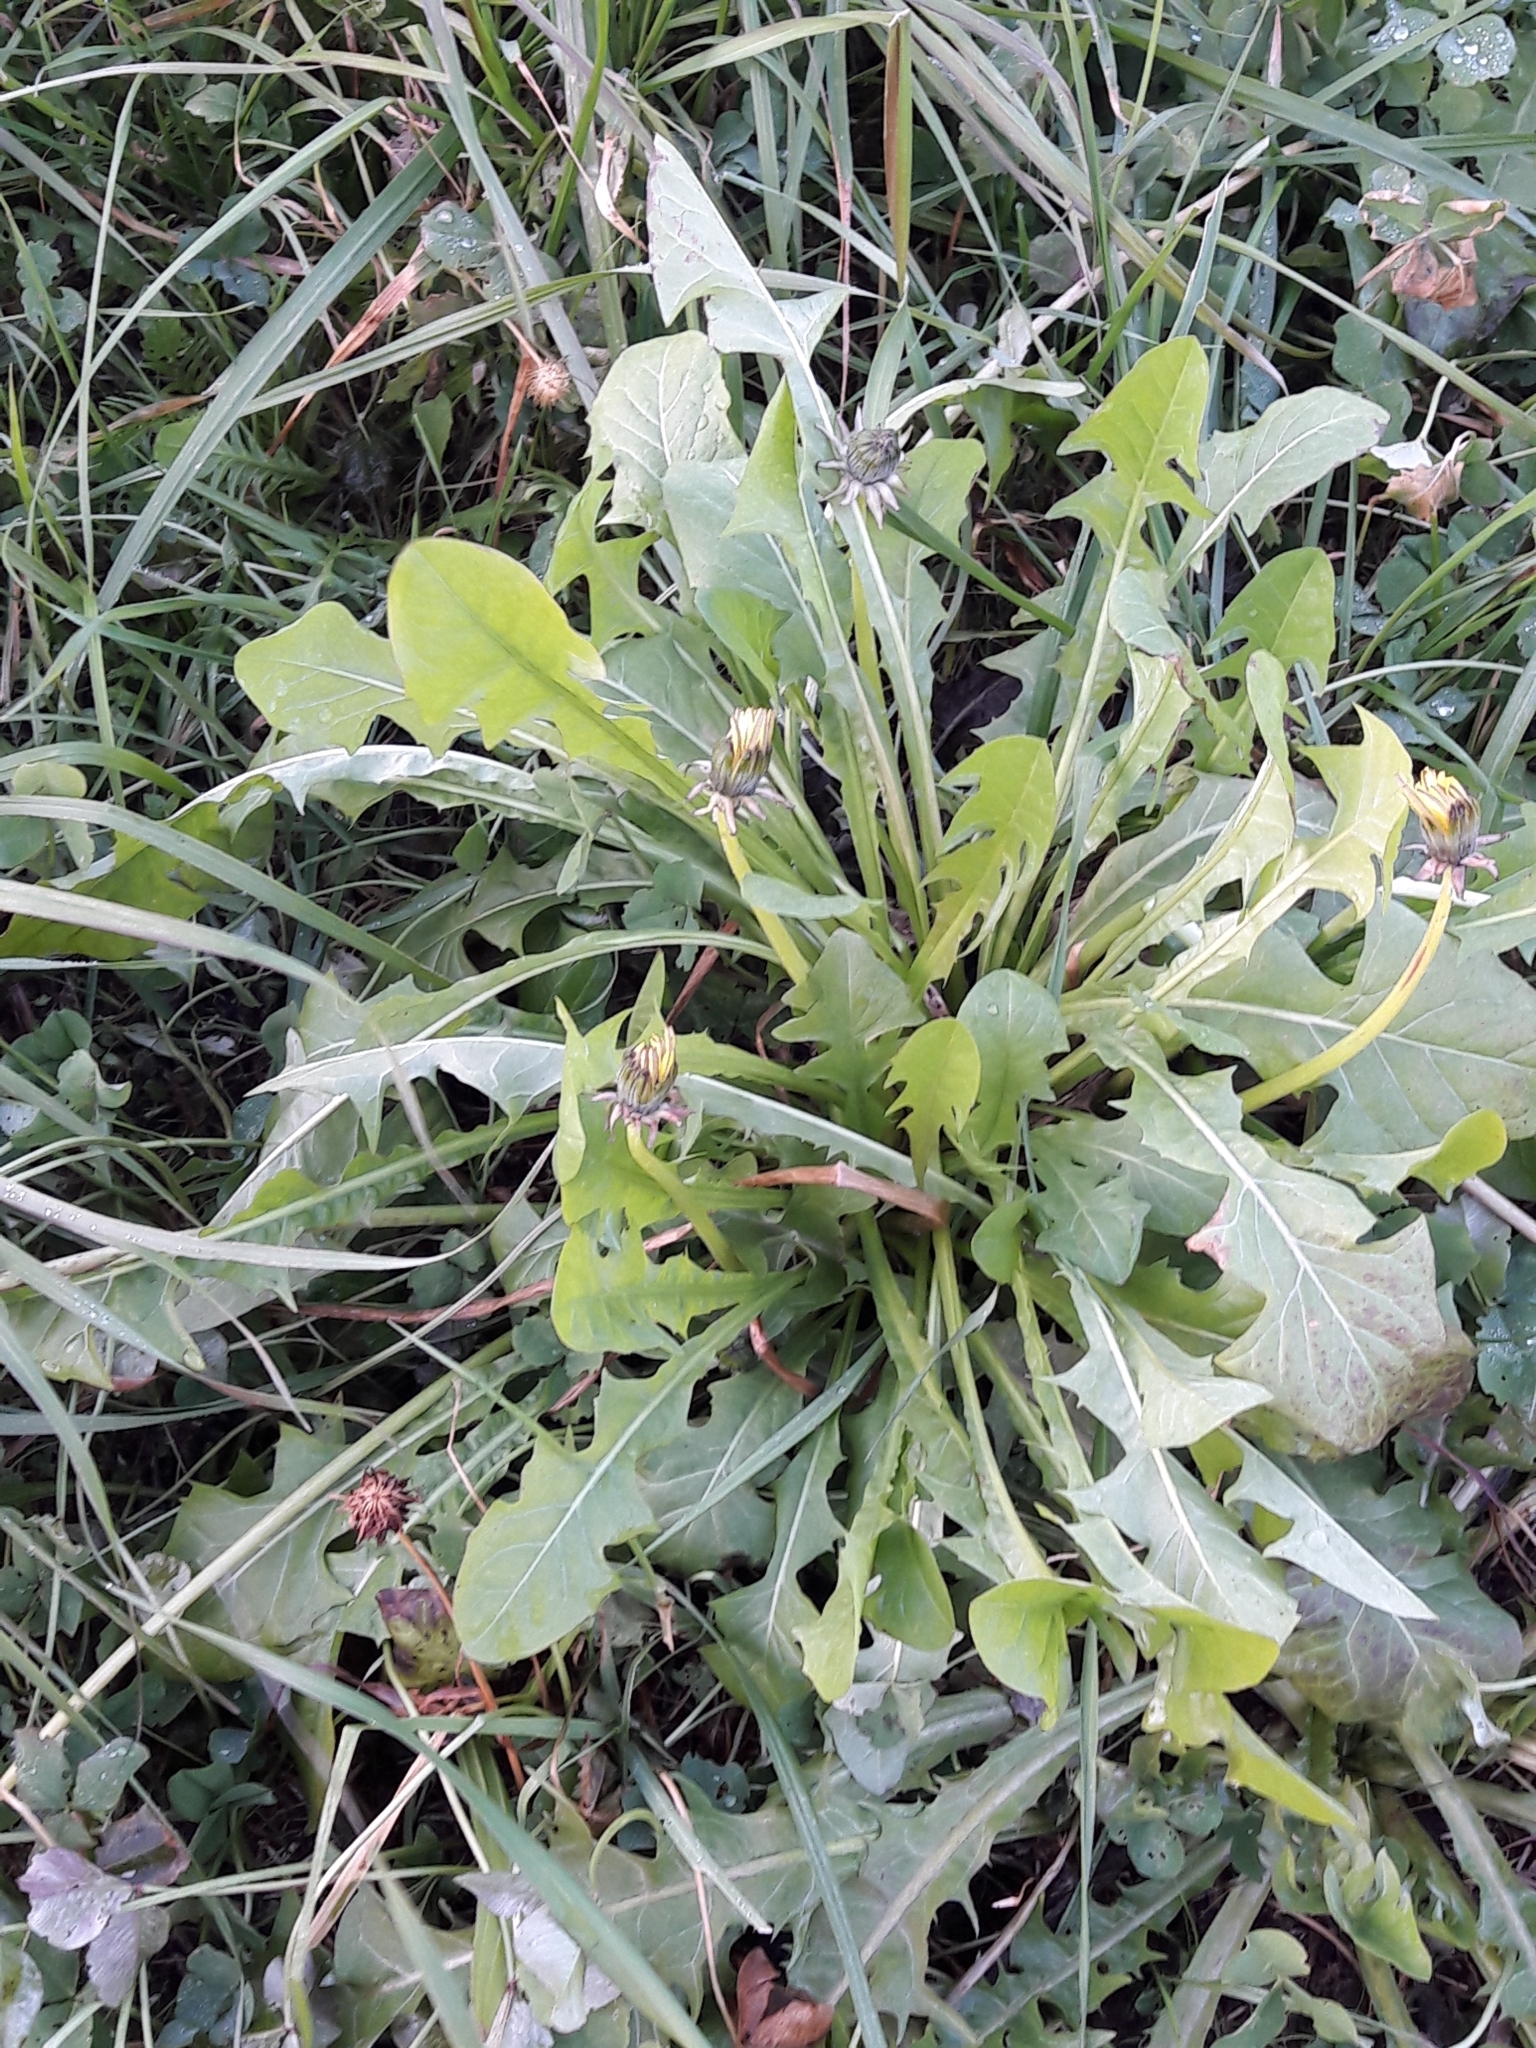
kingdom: Plantae
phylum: Tracheophyta
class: Magnoliopsida
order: Asterales
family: Asteraceae
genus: Taraxacum
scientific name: Taraxacum officinale
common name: Common dandelion
